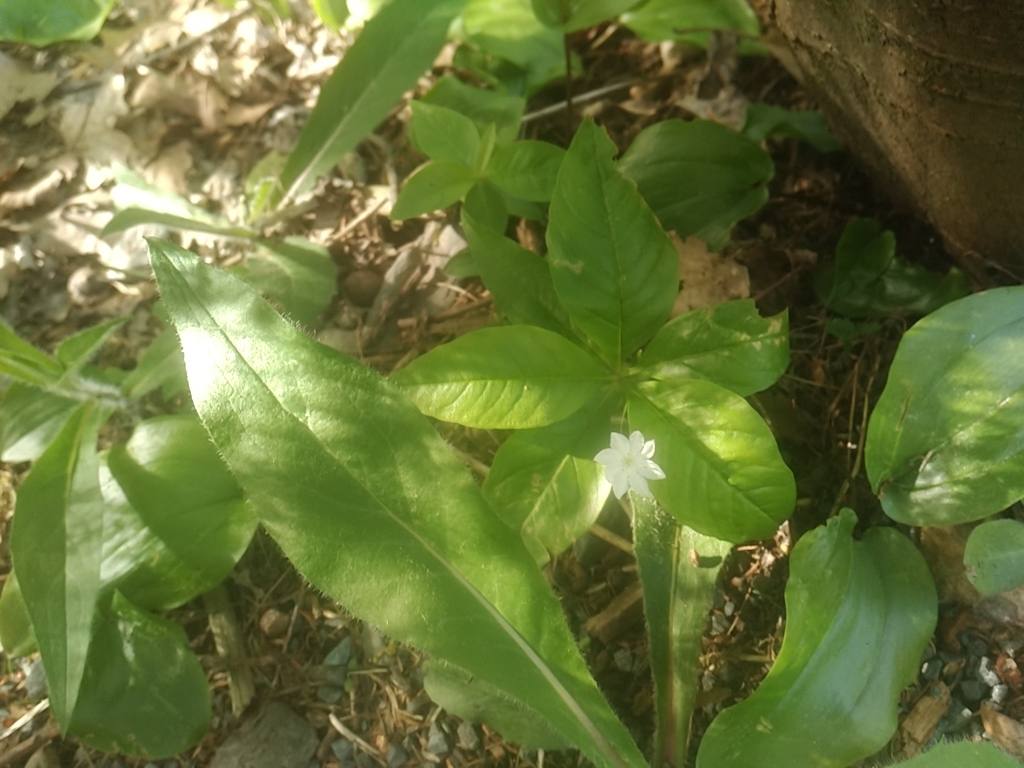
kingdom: Plantae
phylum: Tracheophyta
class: Magnoliopsida
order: Ericales
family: Primulaceae
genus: Lysimachia
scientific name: Lysimachia borealis
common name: American starflower
